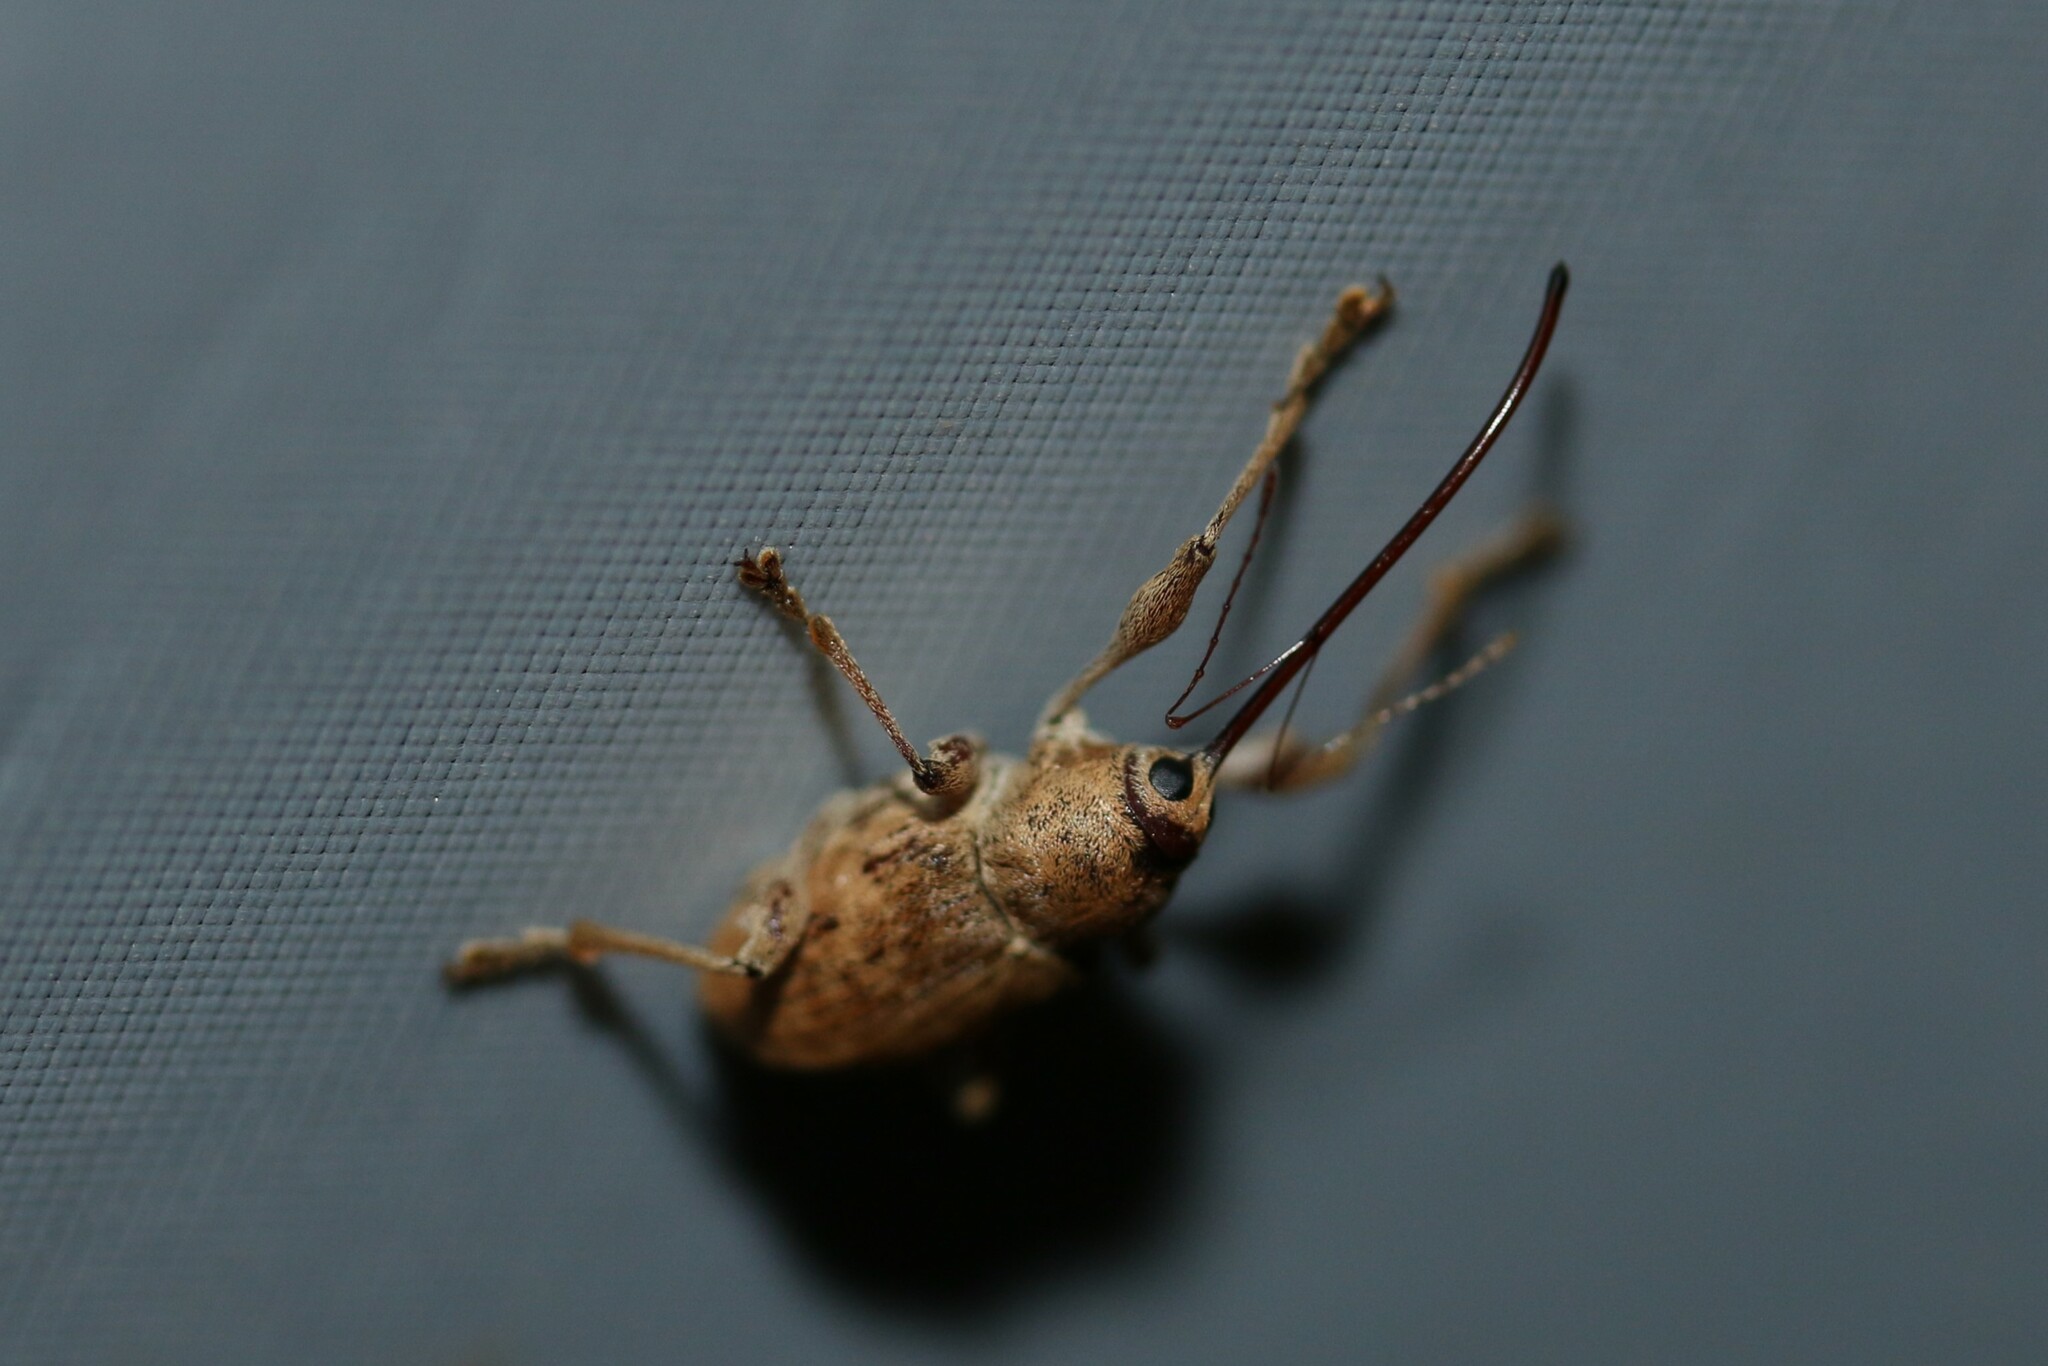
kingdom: Animalia
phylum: Arthropoda
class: Insecta
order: Coleoptera
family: Curculionidae
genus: Curculio
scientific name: Curculio elephas
